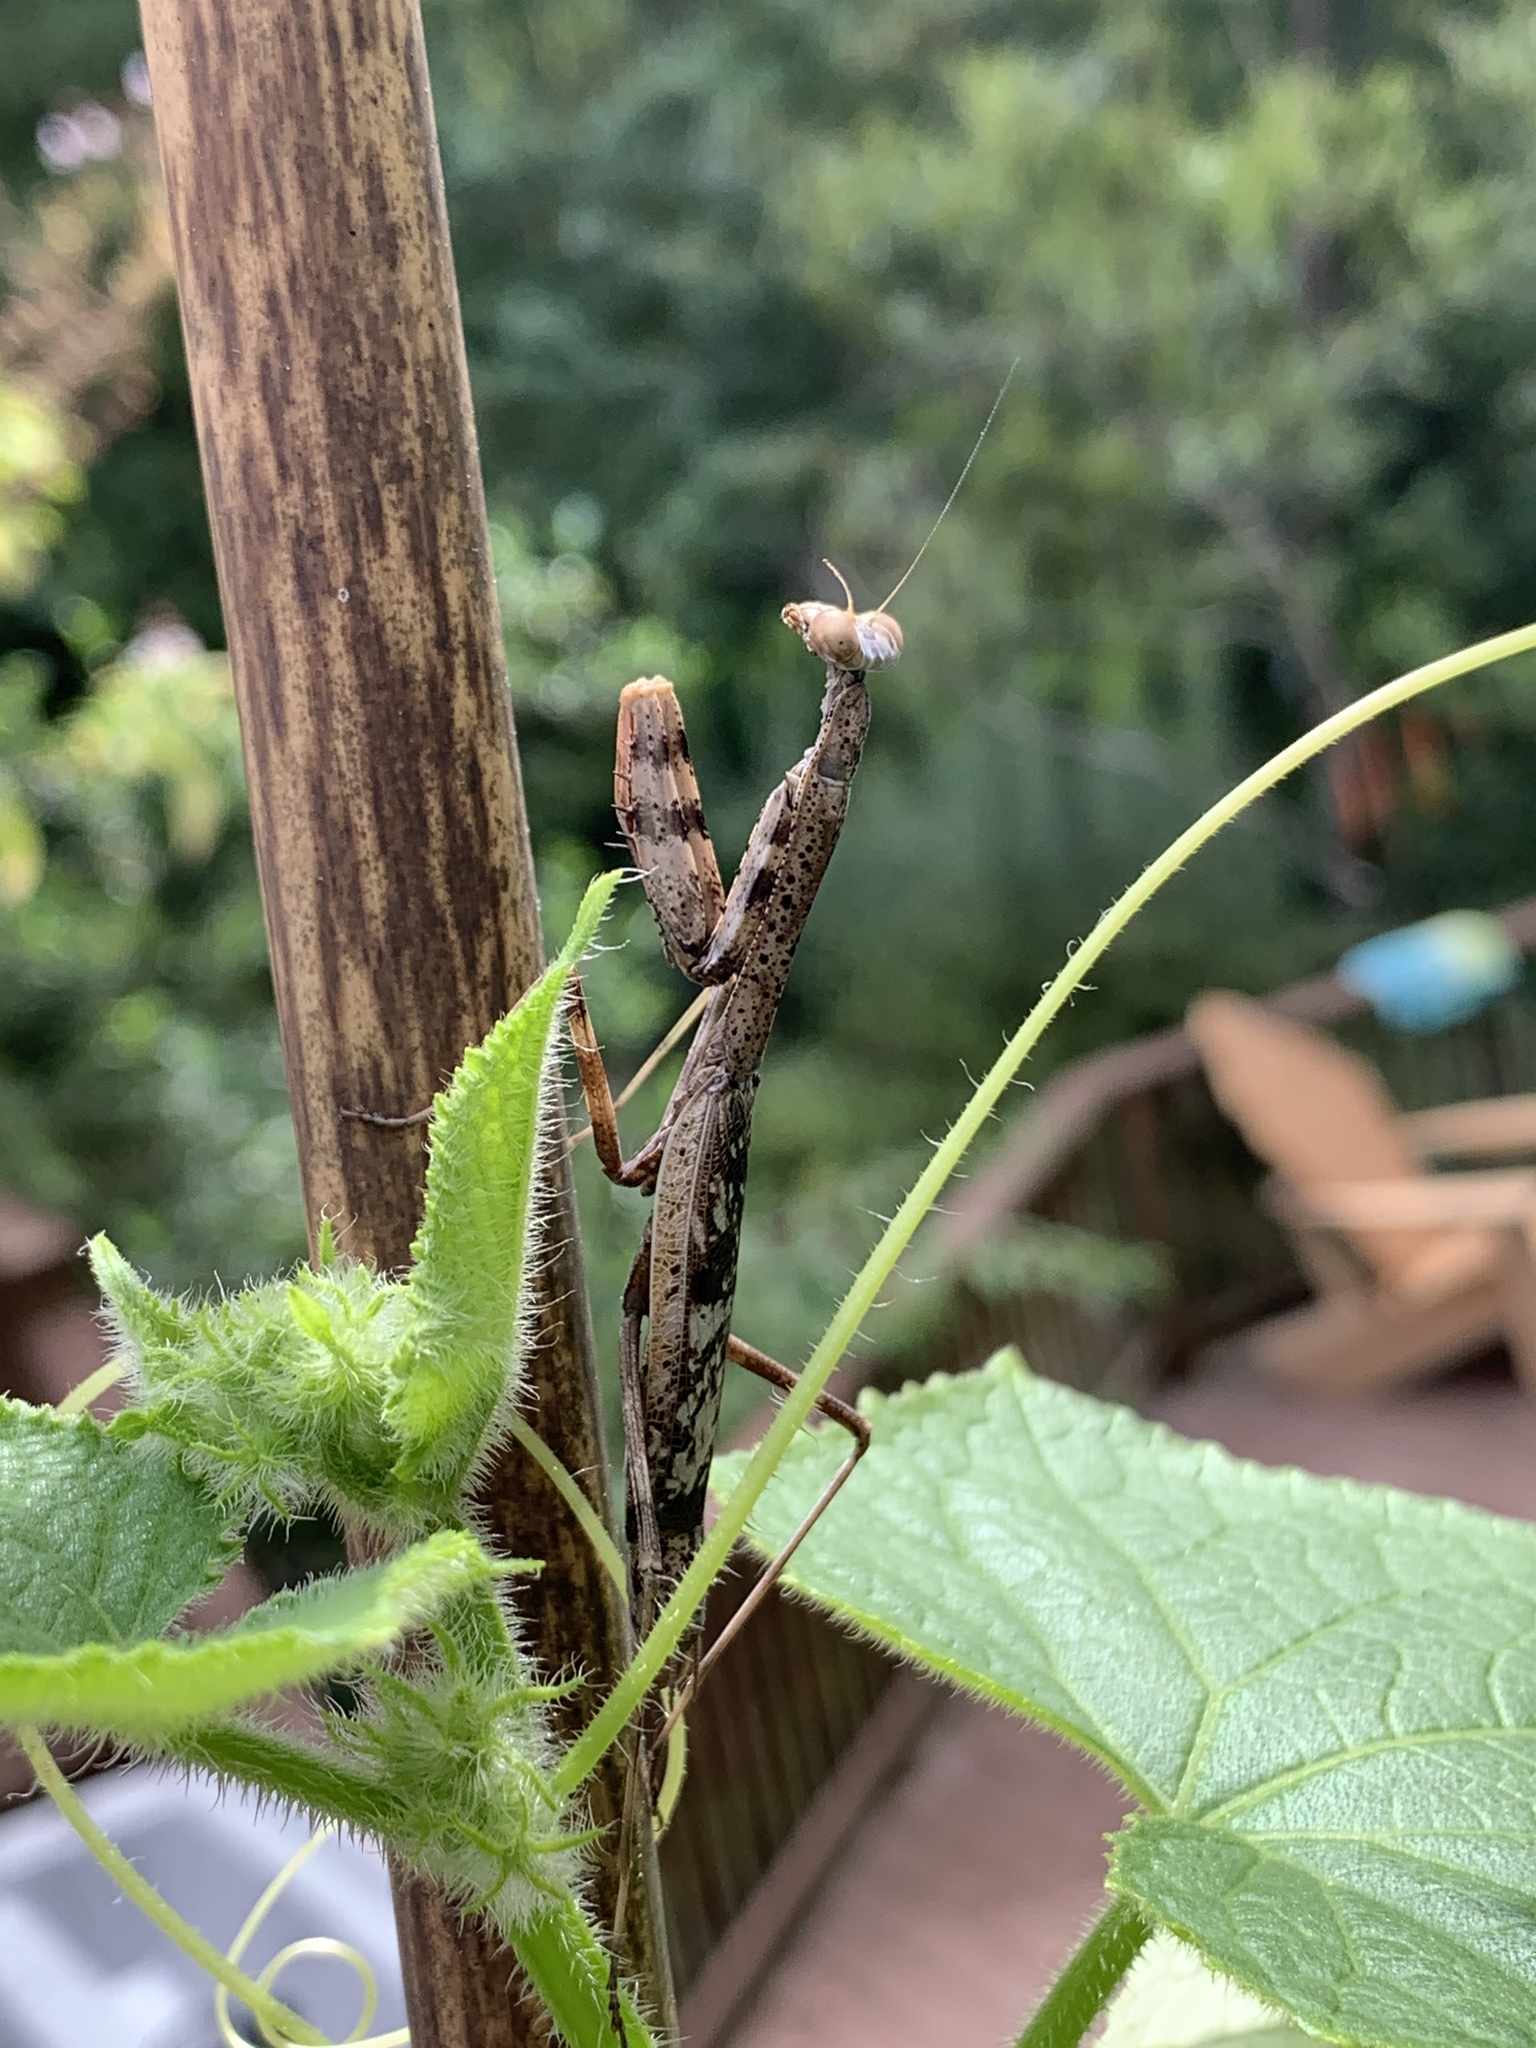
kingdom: Animalia
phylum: Arthropoda
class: Insecta
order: Mantodea
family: Mantidae
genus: Stagmomantis
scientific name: Stagmomantis carolina
